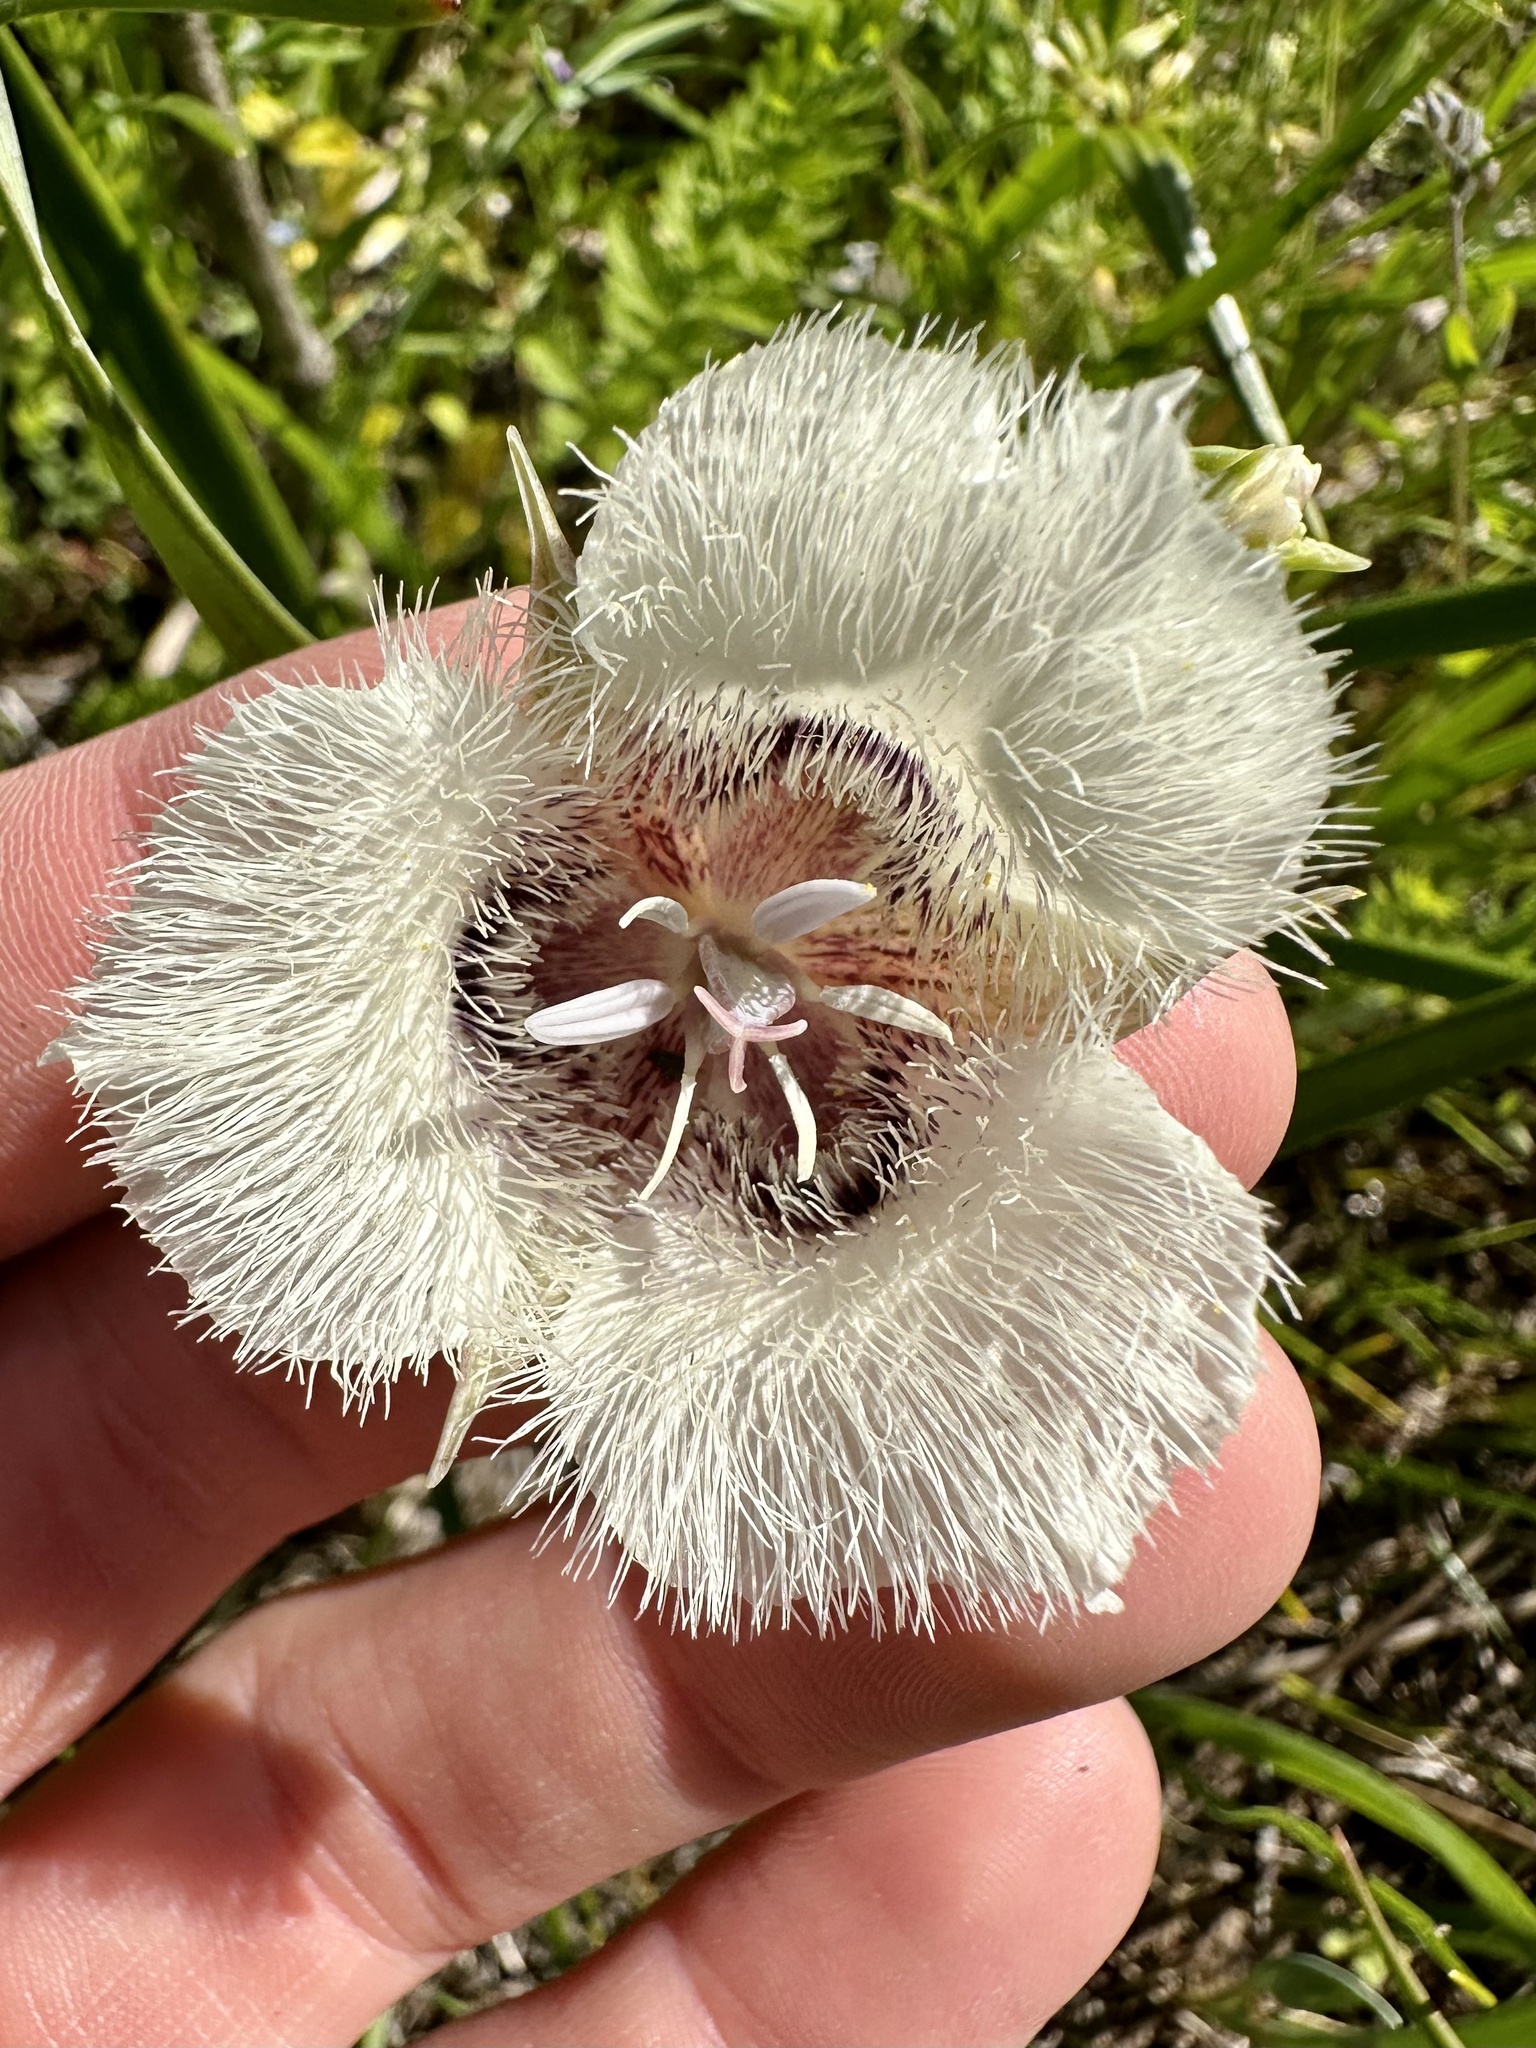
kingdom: Plantae
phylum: Tracheophyta
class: Liliopsida
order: Liliales
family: Liliaceae
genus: Calochortus
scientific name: Calochortus tolmiei
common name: Pussy-ears
